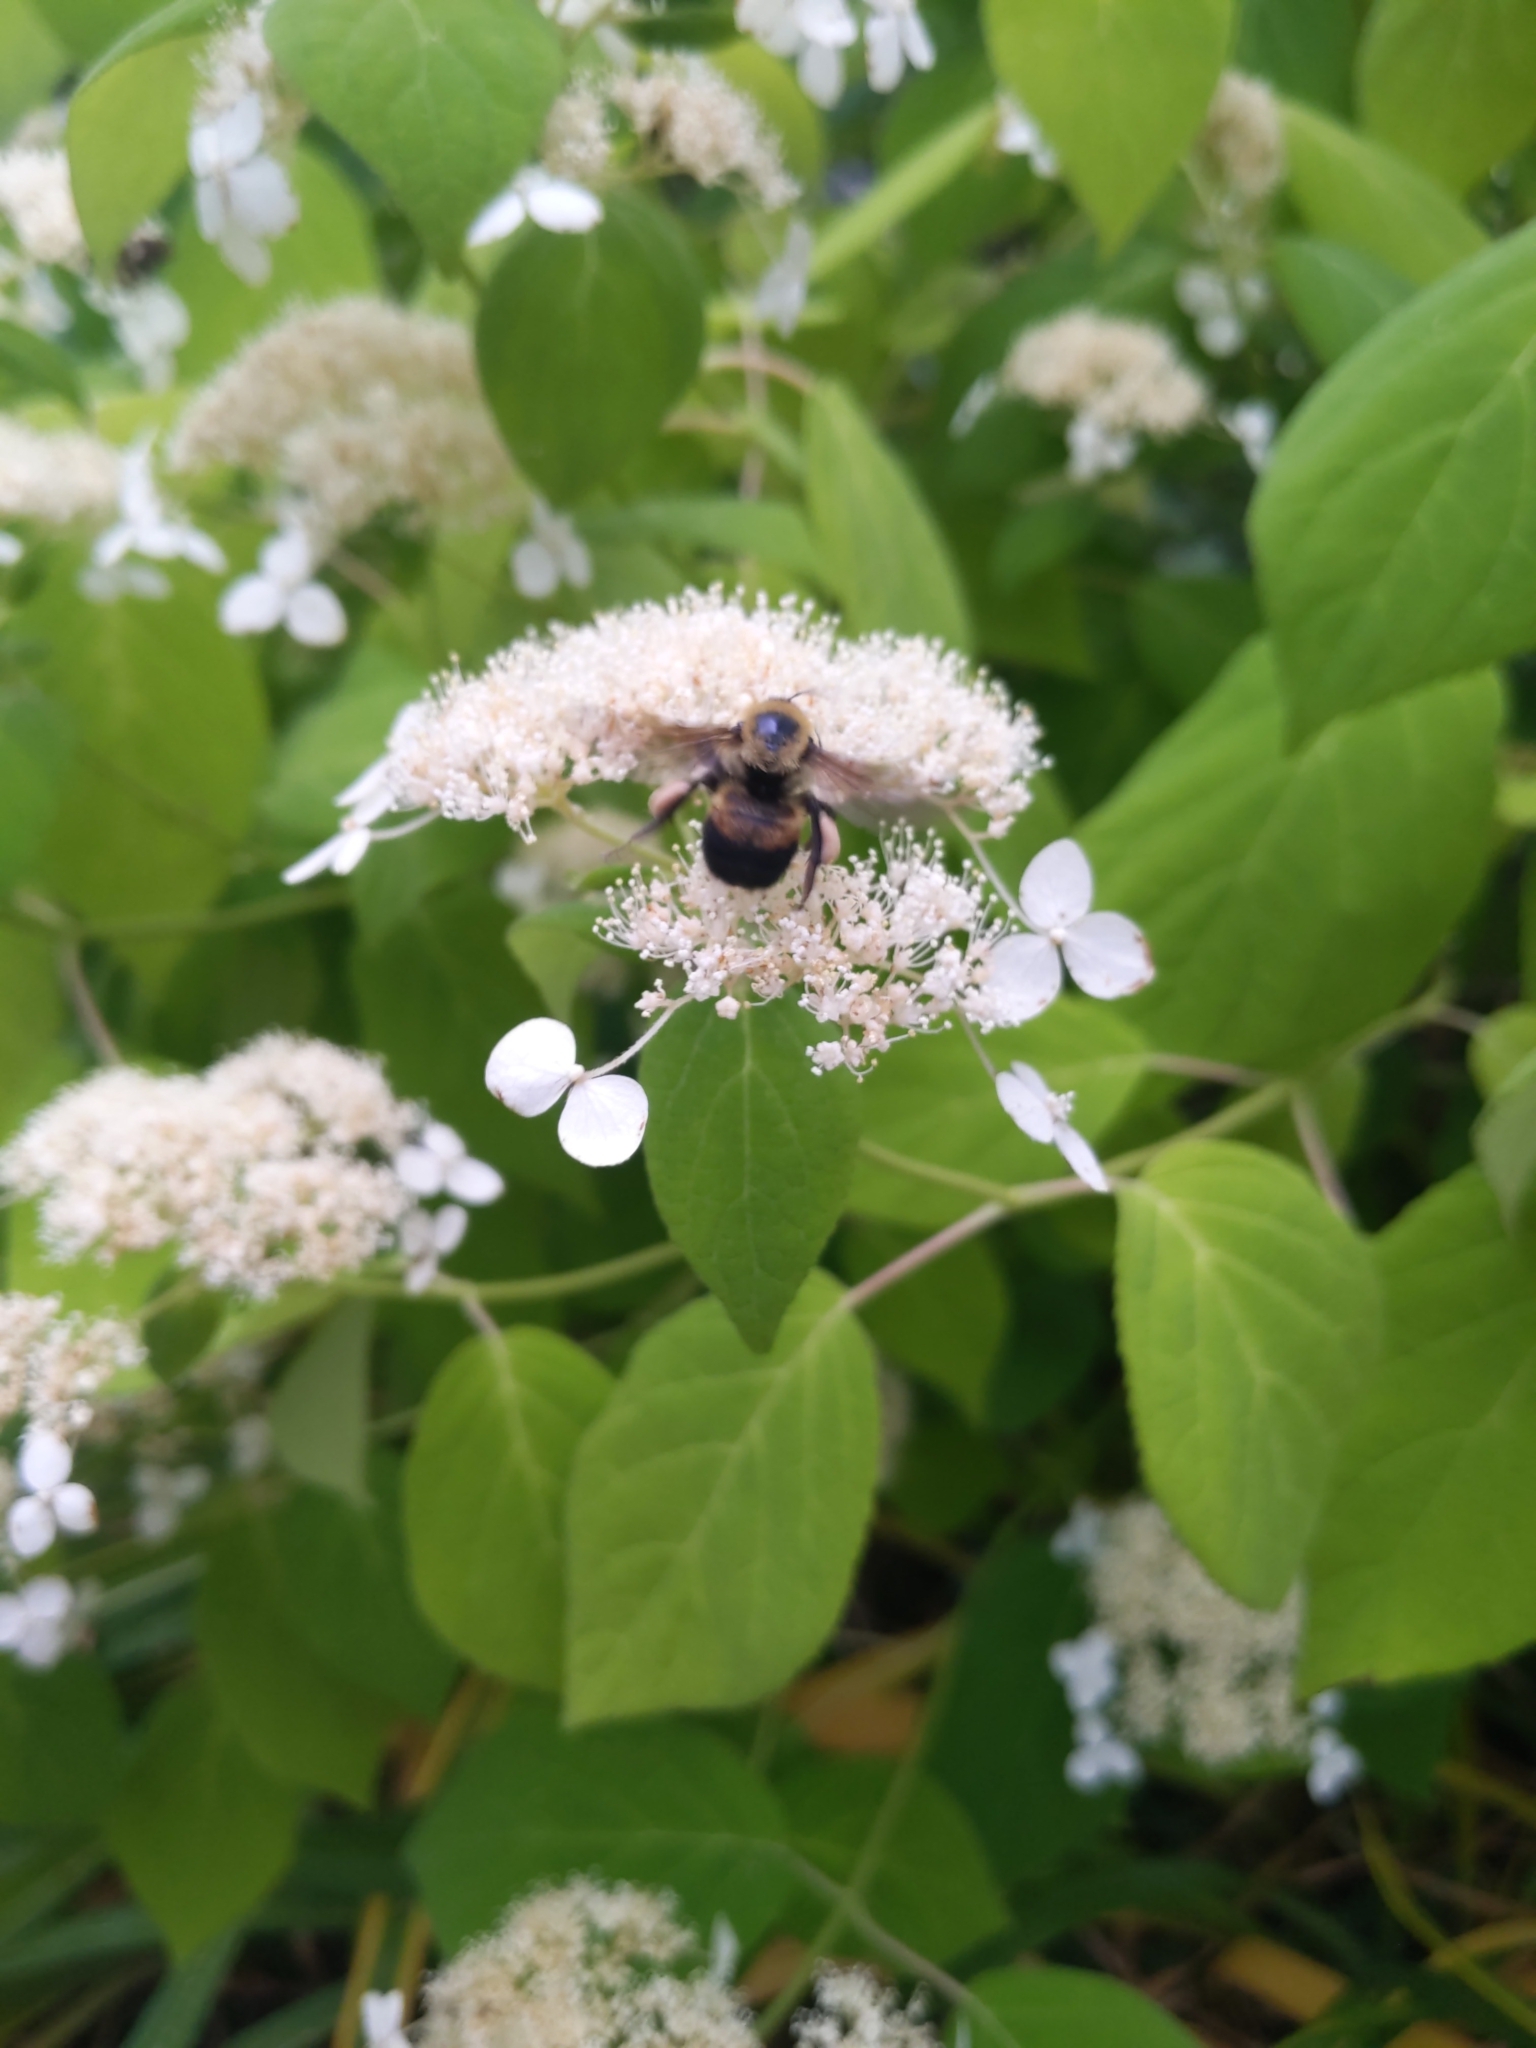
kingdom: Animalia
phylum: Arthropoda
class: Insecta
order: Hymenoptera
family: Apidae
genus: Bombus
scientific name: Bombus griseocollis
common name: Brown-belted bumble bee
